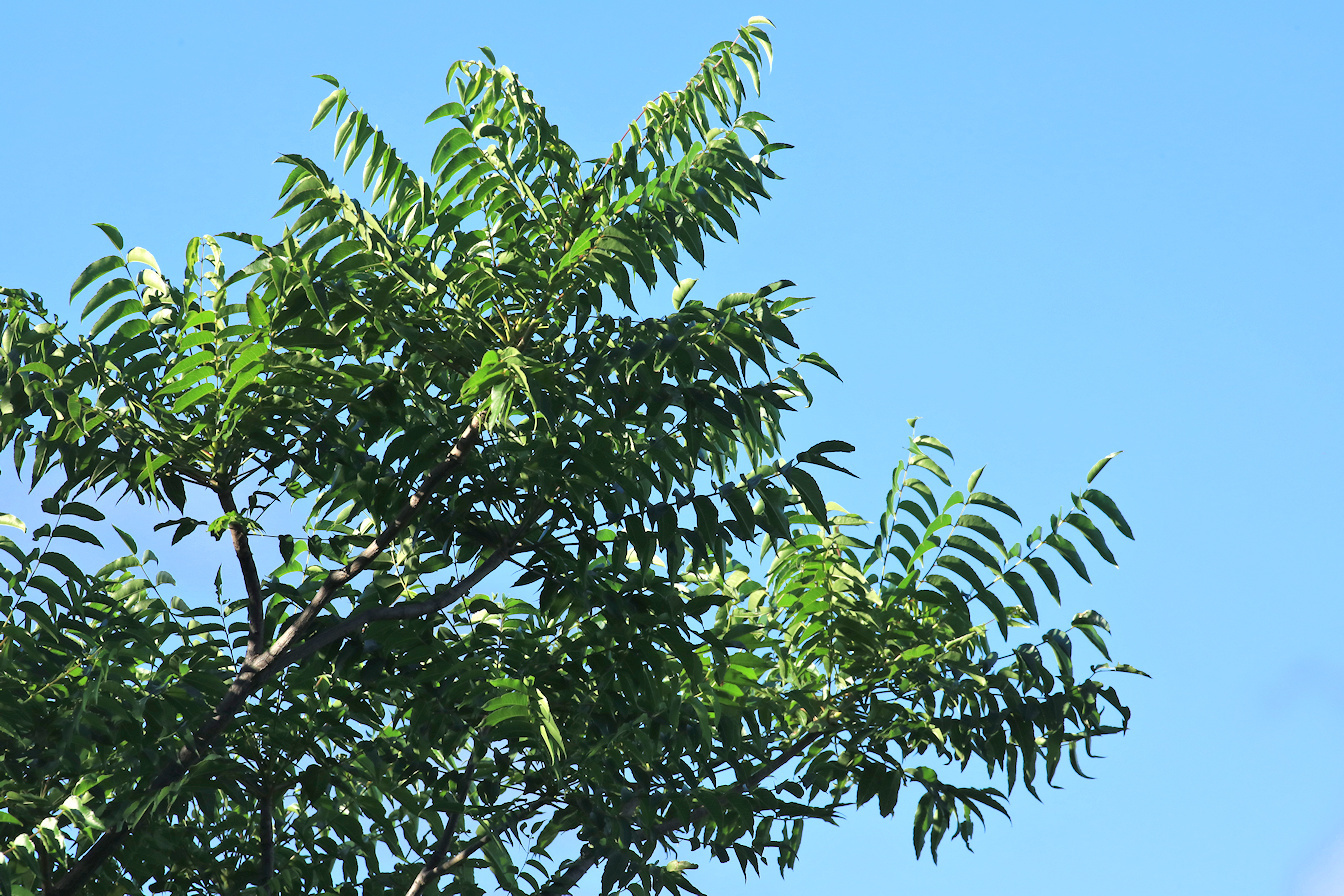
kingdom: Plantae
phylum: Tracheophyta
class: Magnoliopsida
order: Sapindales
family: Kirkiaceae
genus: Kirkia
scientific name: Kirkia acuminata
